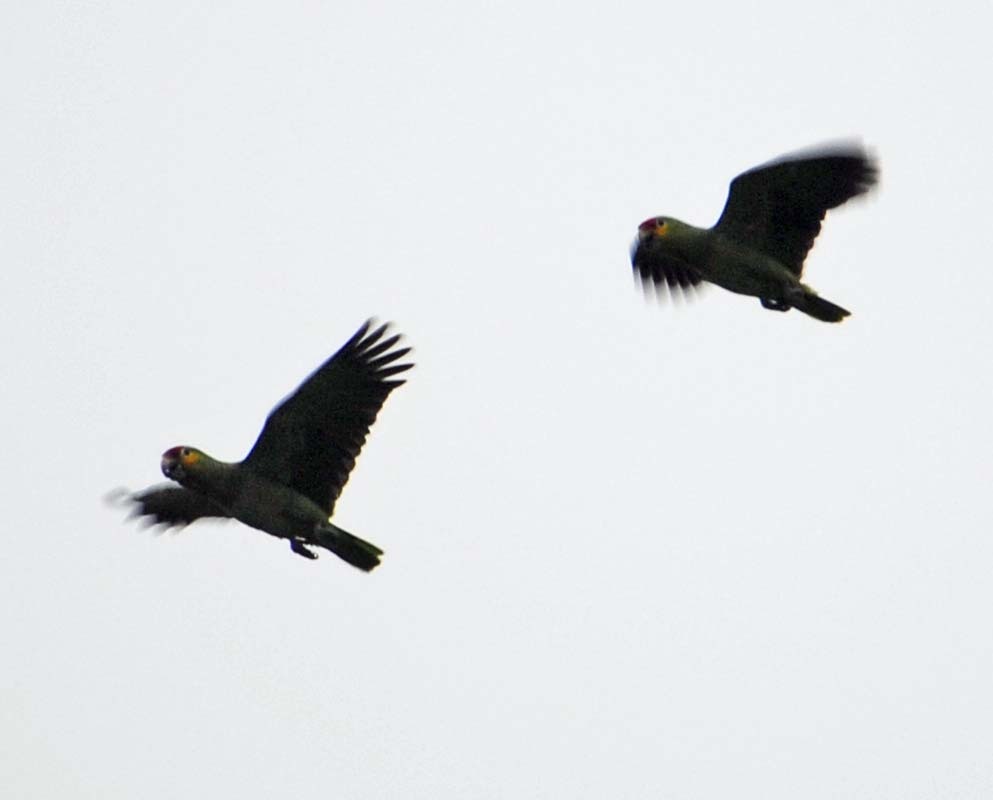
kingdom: Animalia
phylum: Chordata
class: Aves
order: Psittaciformes
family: Psittacidae
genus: Amazona
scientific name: Amazona autumnalis
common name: Red-lored amazon
